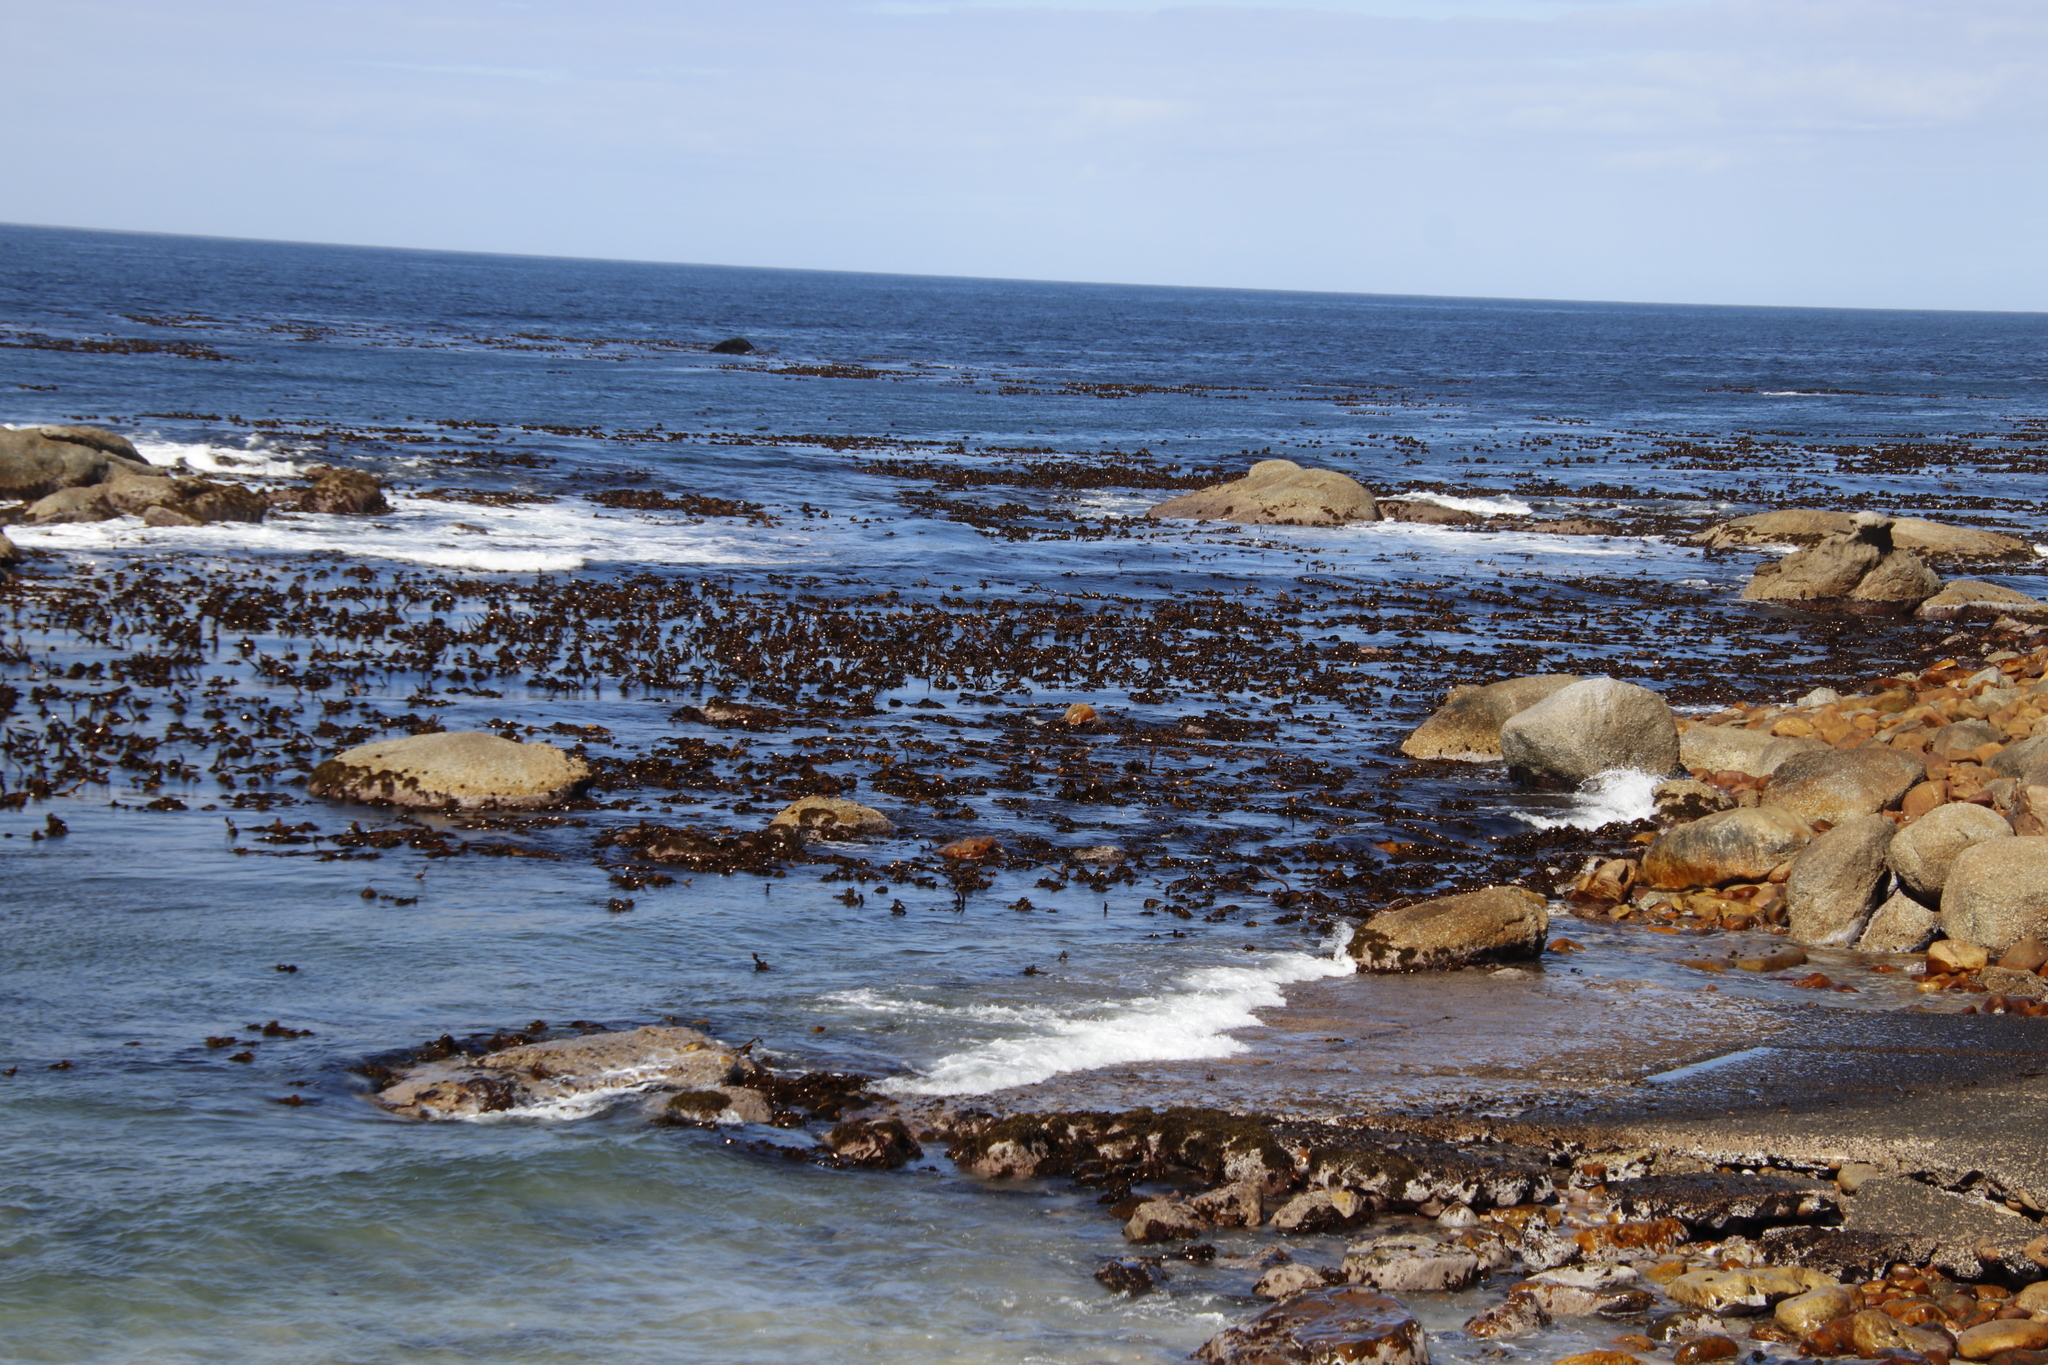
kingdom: Chromista
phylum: Ochrophyta
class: Phaeophyceae
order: Laminariales
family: Lessoniaceae
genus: Ecklonia
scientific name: Ecklonia
